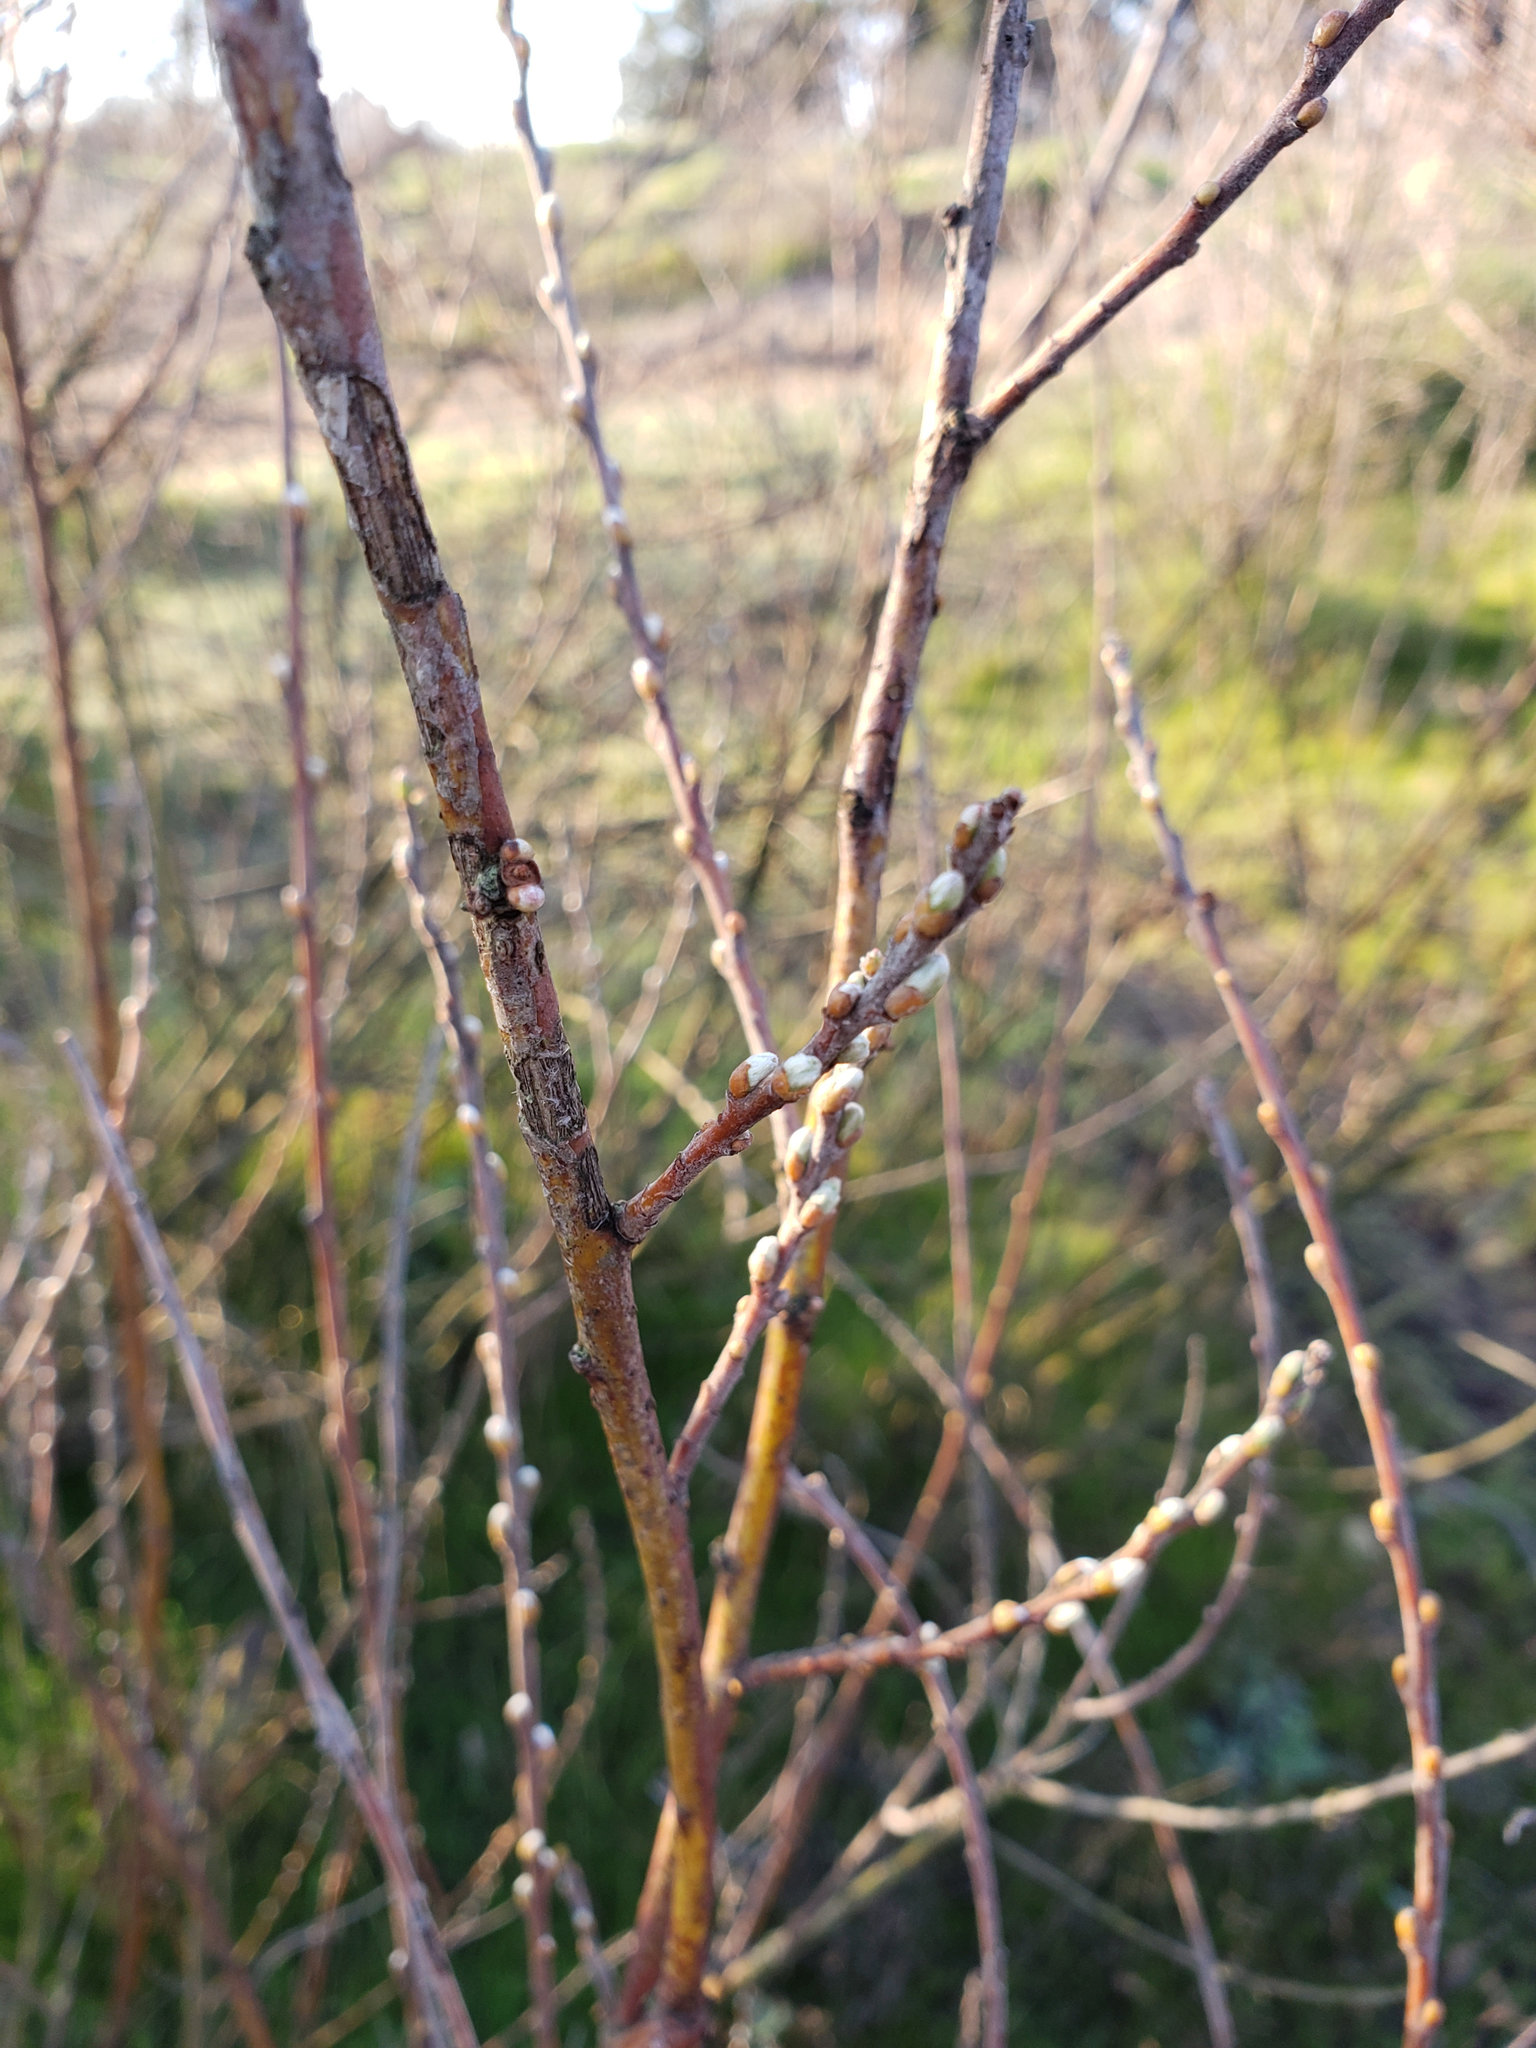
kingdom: Plantae
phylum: Tracheophyta
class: Magnoliopsida
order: Malpighiales
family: Salicaceae
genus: Salix
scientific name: Salix exigua
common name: Coyote willow
